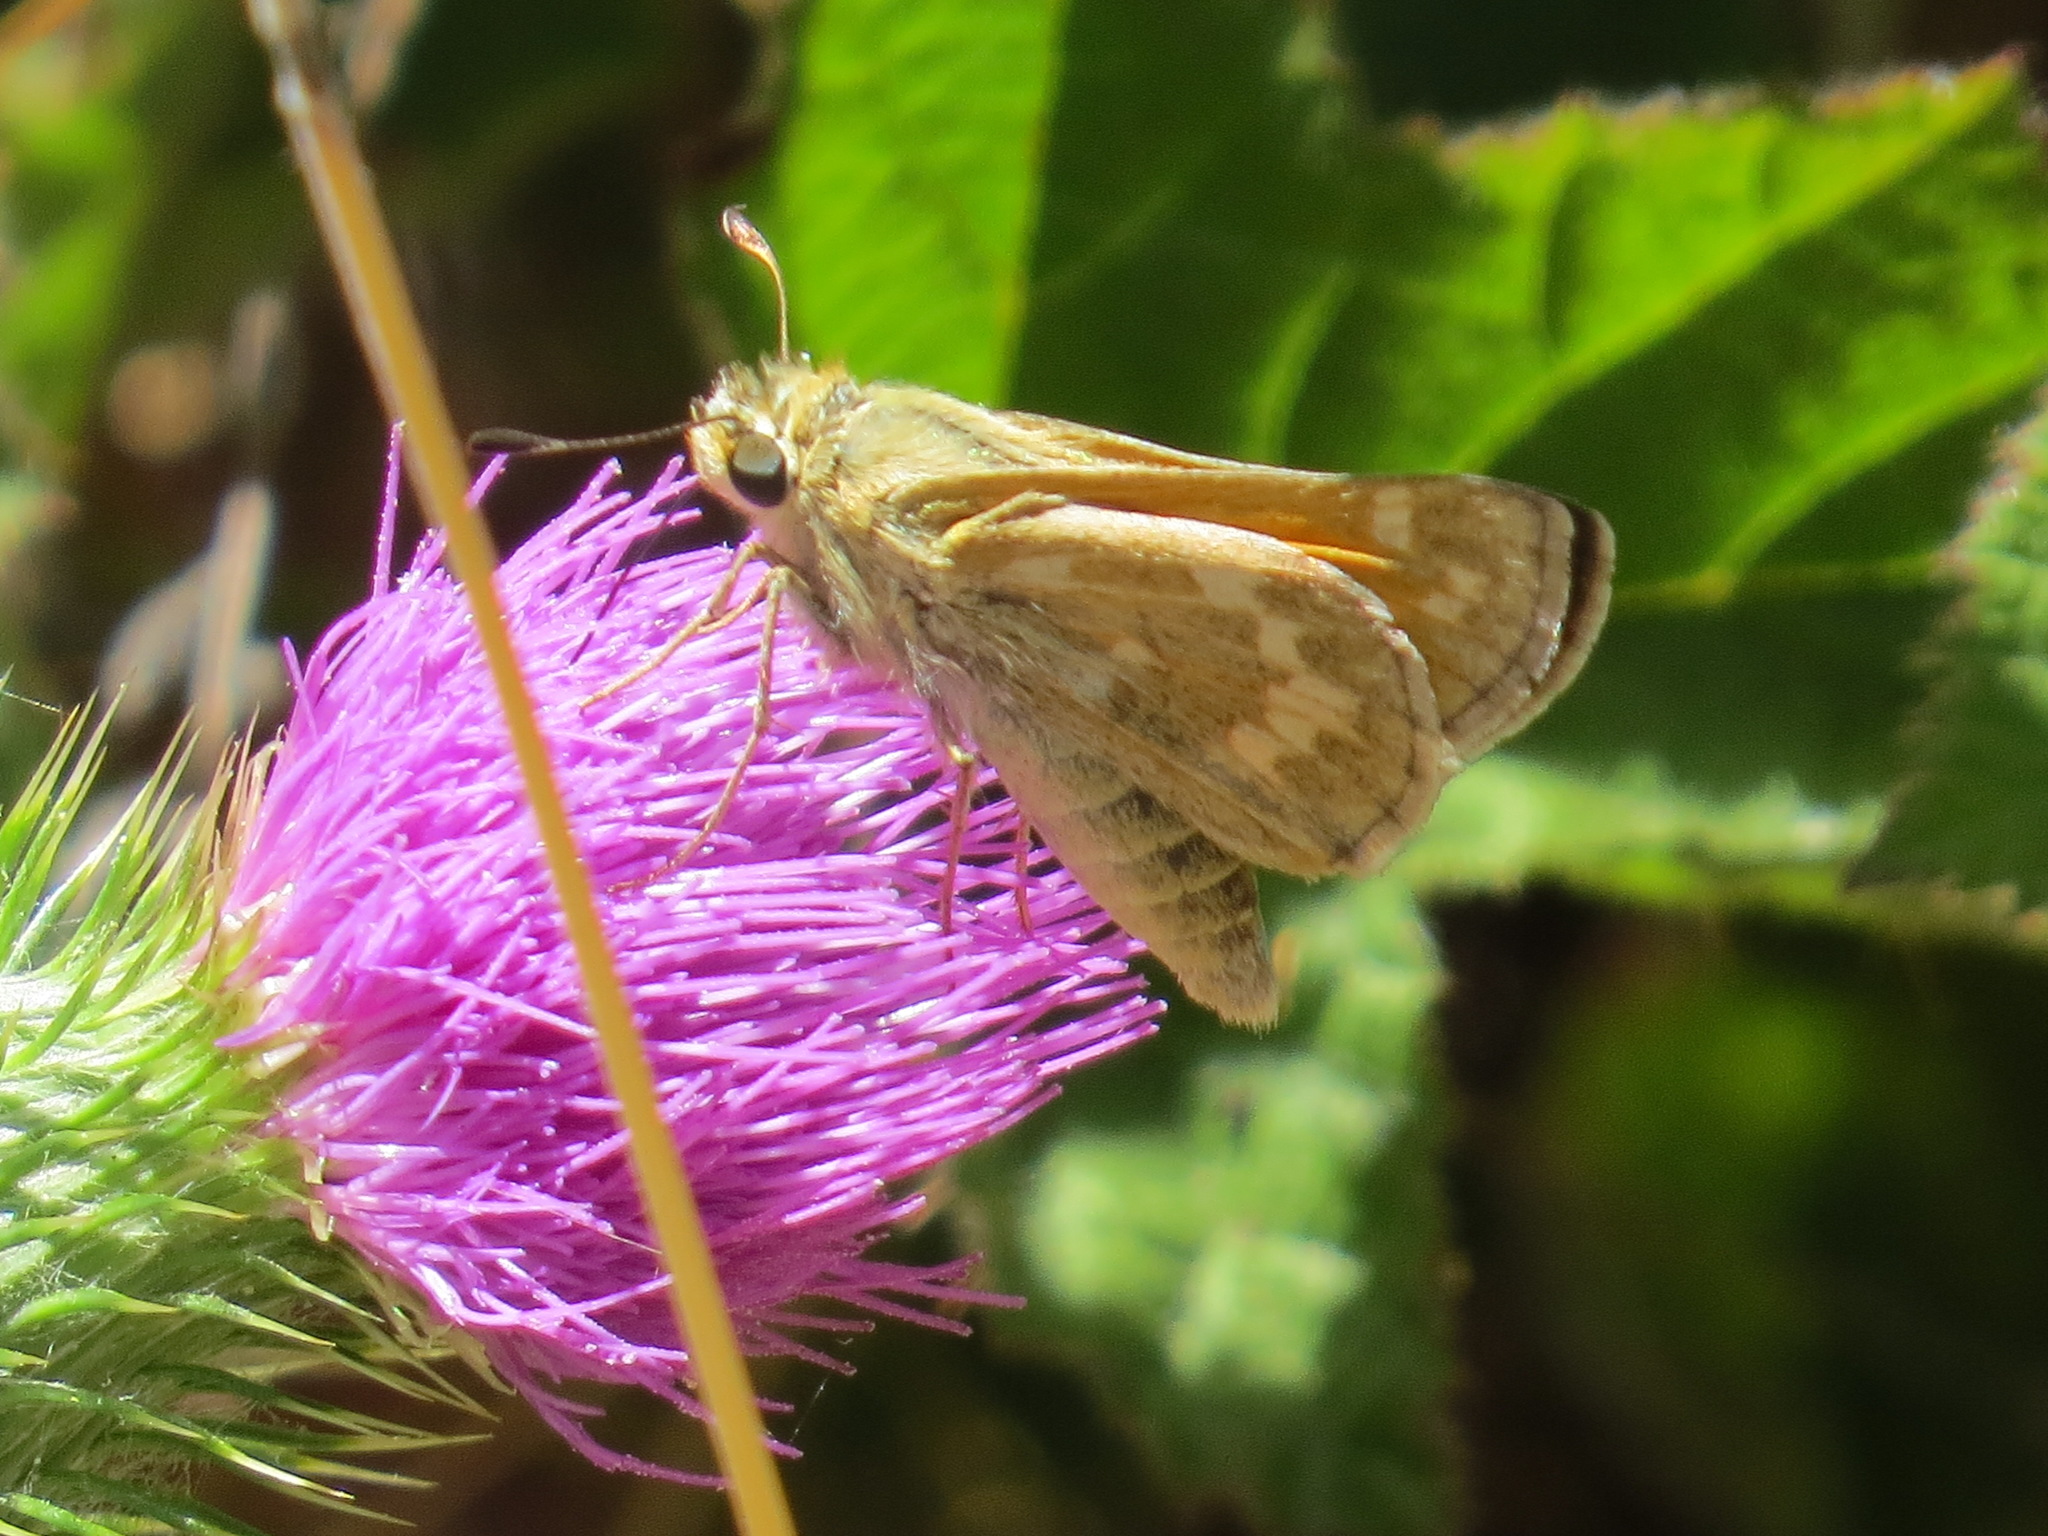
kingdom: Animalia
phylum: Arthropoda
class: Insecta
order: Lepidoptera
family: Hesperiidae
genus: Atalopedes
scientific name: Atalopedes campestris
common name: Sachem
